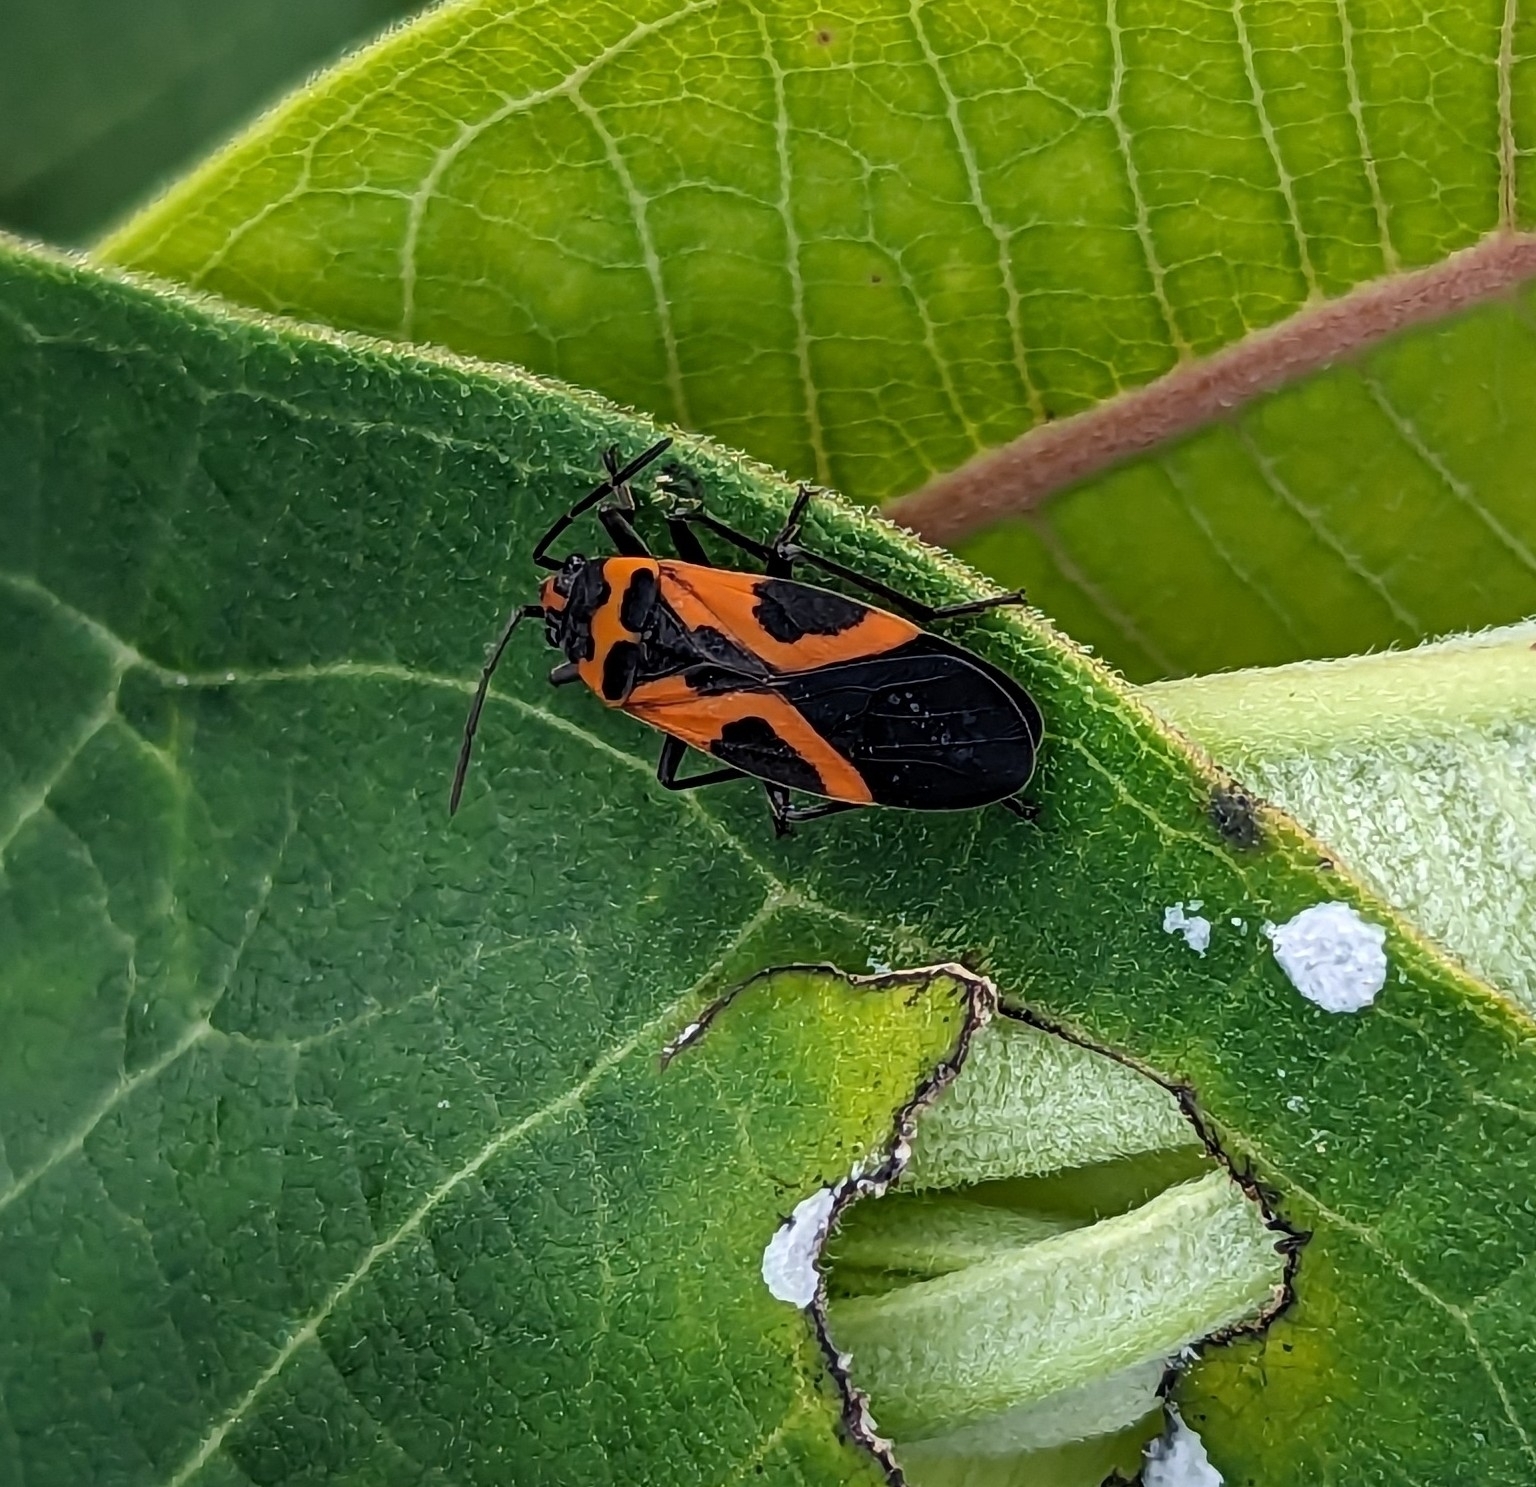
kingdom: Animalia
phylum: Arthropoda
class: Insecta
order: Hemiptera
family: Lygaeidae
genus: Lygaeus
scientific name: Lygaeus turcicus
